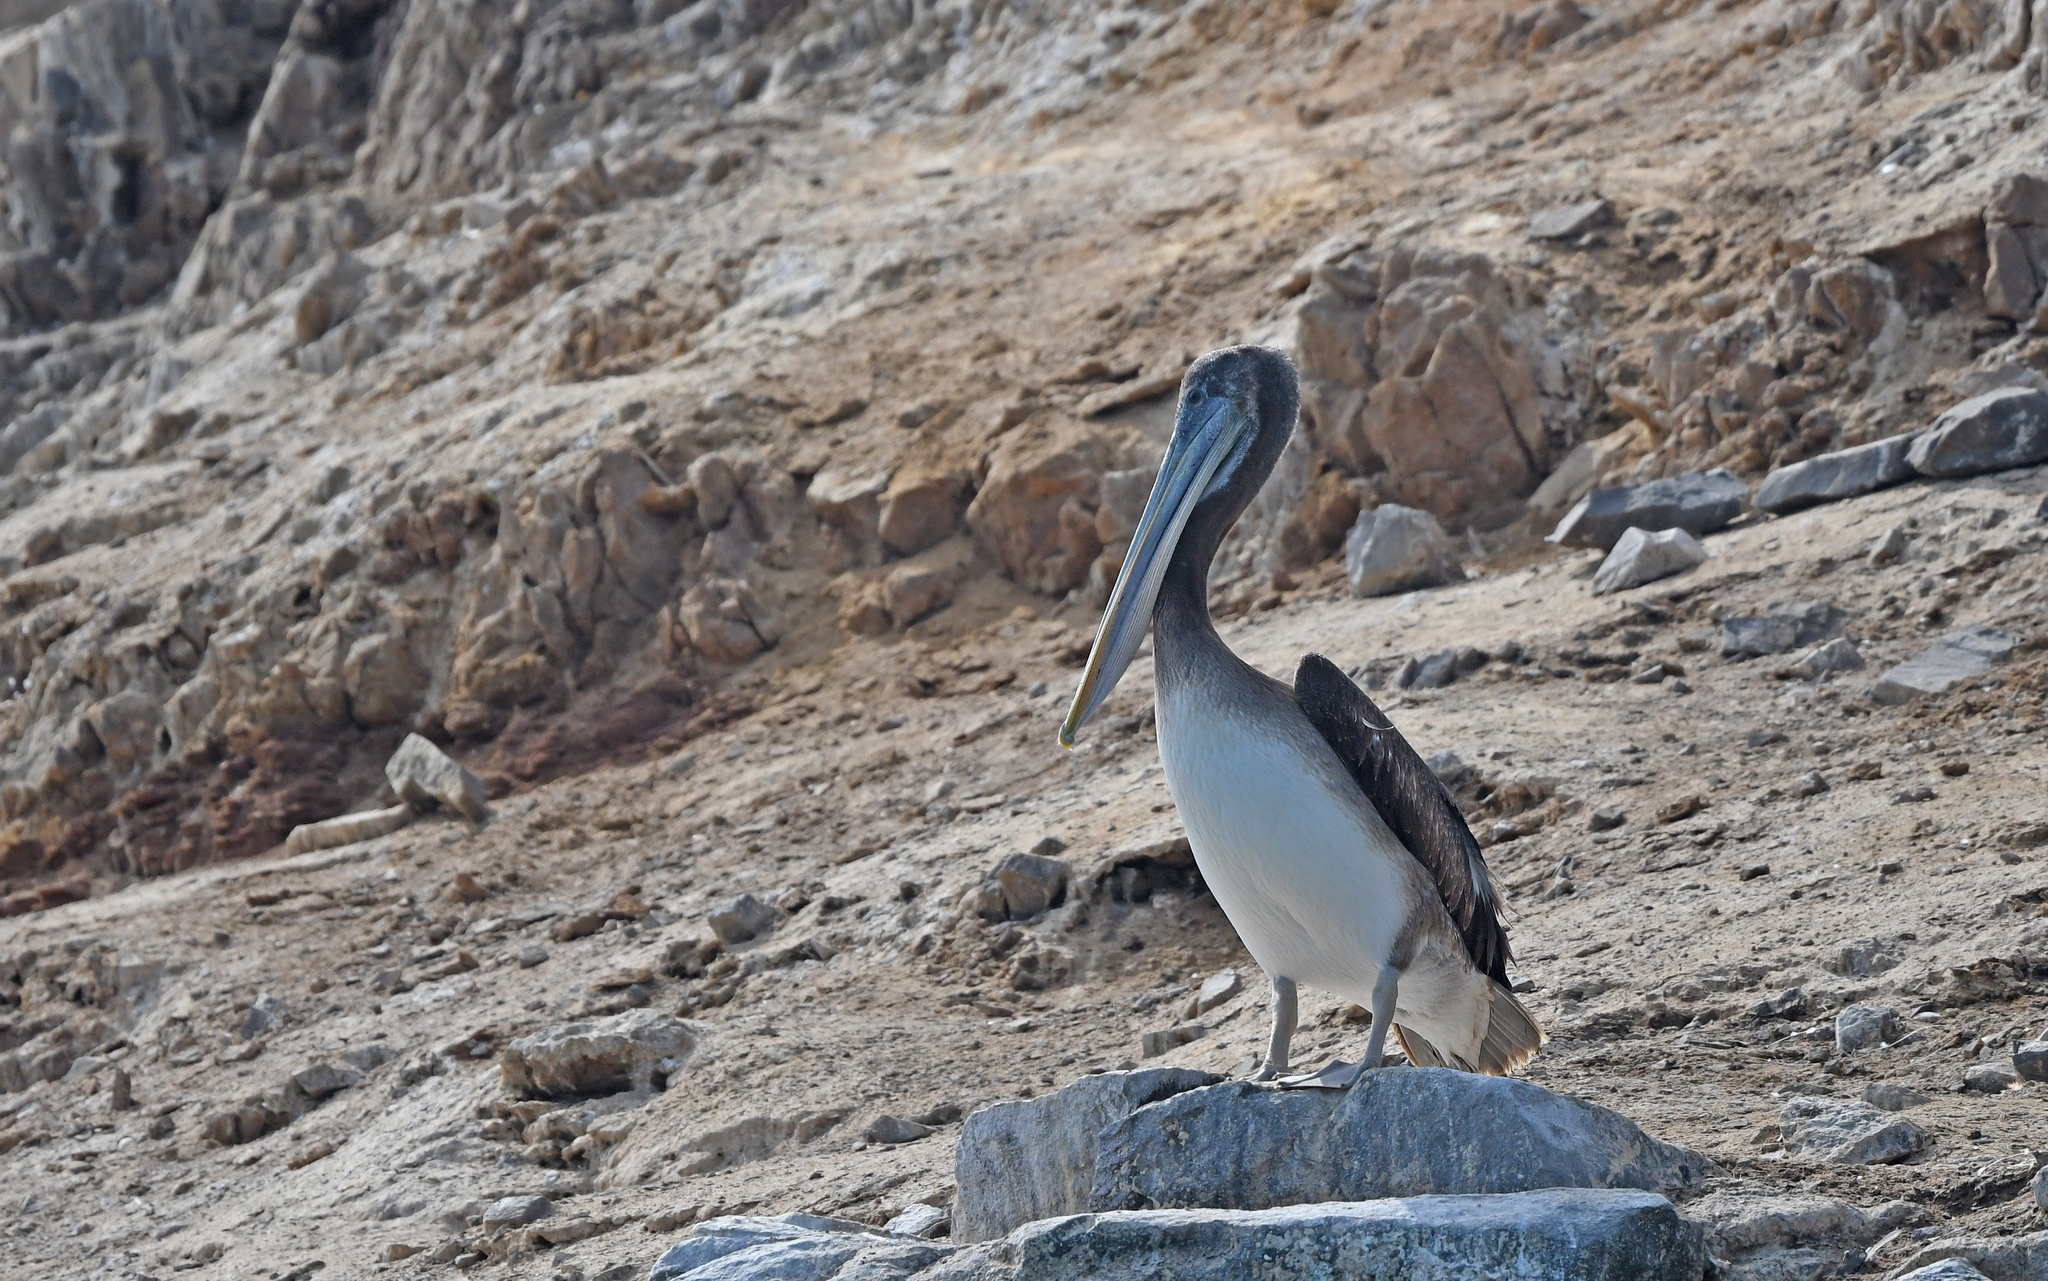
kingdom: Animalia
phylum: Chordata
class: Aves
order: Pelecaniformes
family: Pelecanidae
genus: Pelecanus
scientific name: Pelecanus thagus
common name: Peruvian pelican
